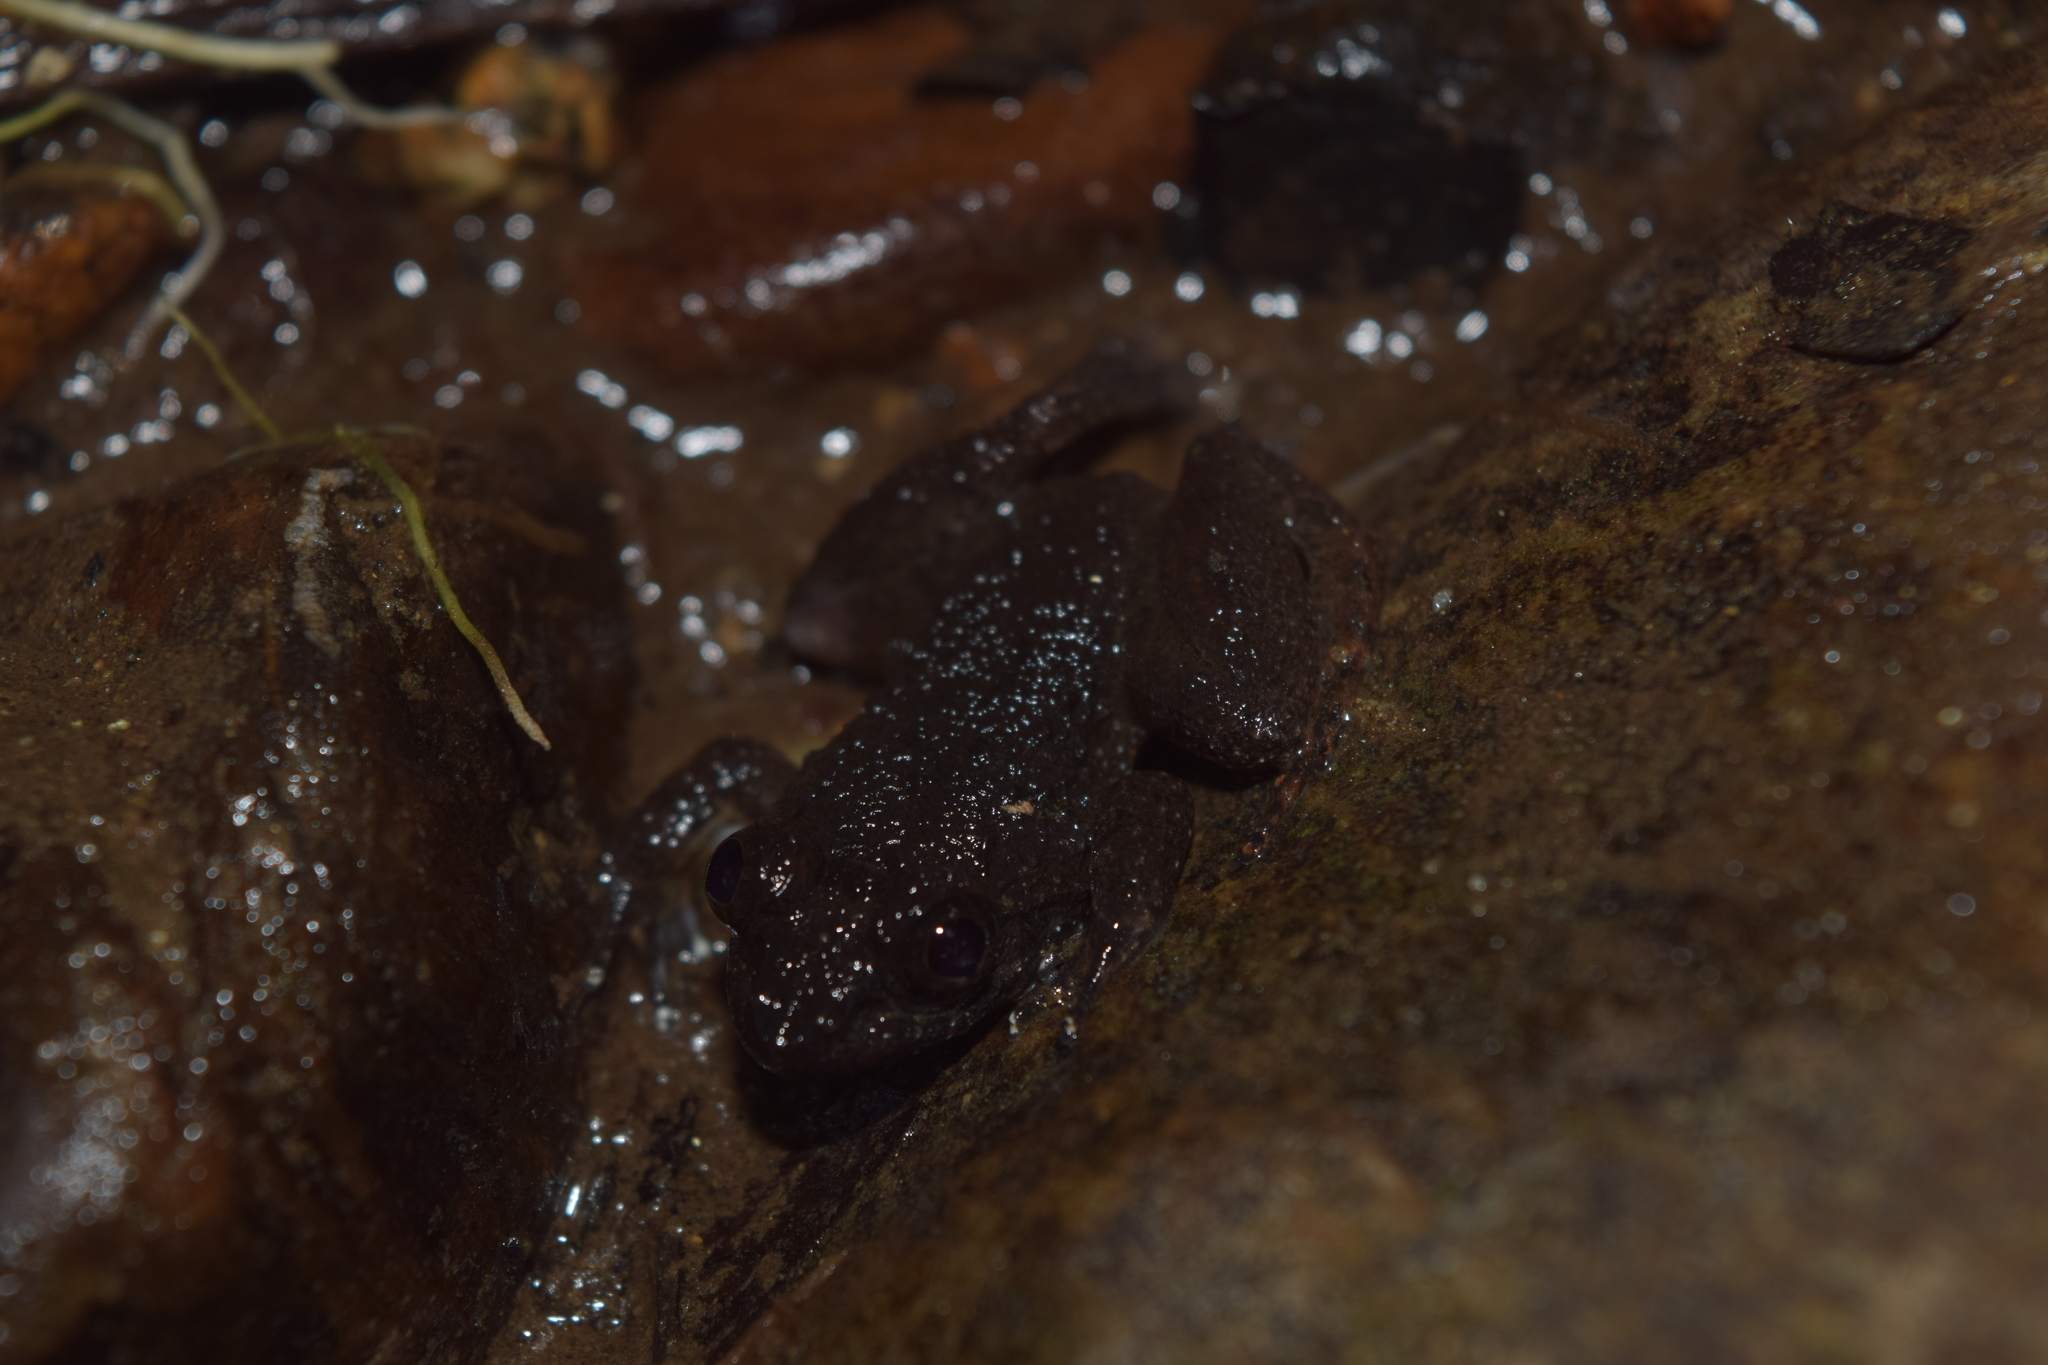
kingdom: Animalia
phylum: Chordata
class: Amphibia
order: Anura
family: Ceratobatrachidae
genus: Alcalus
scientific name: Alcalus rajae
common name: King dwarf mountain frog
